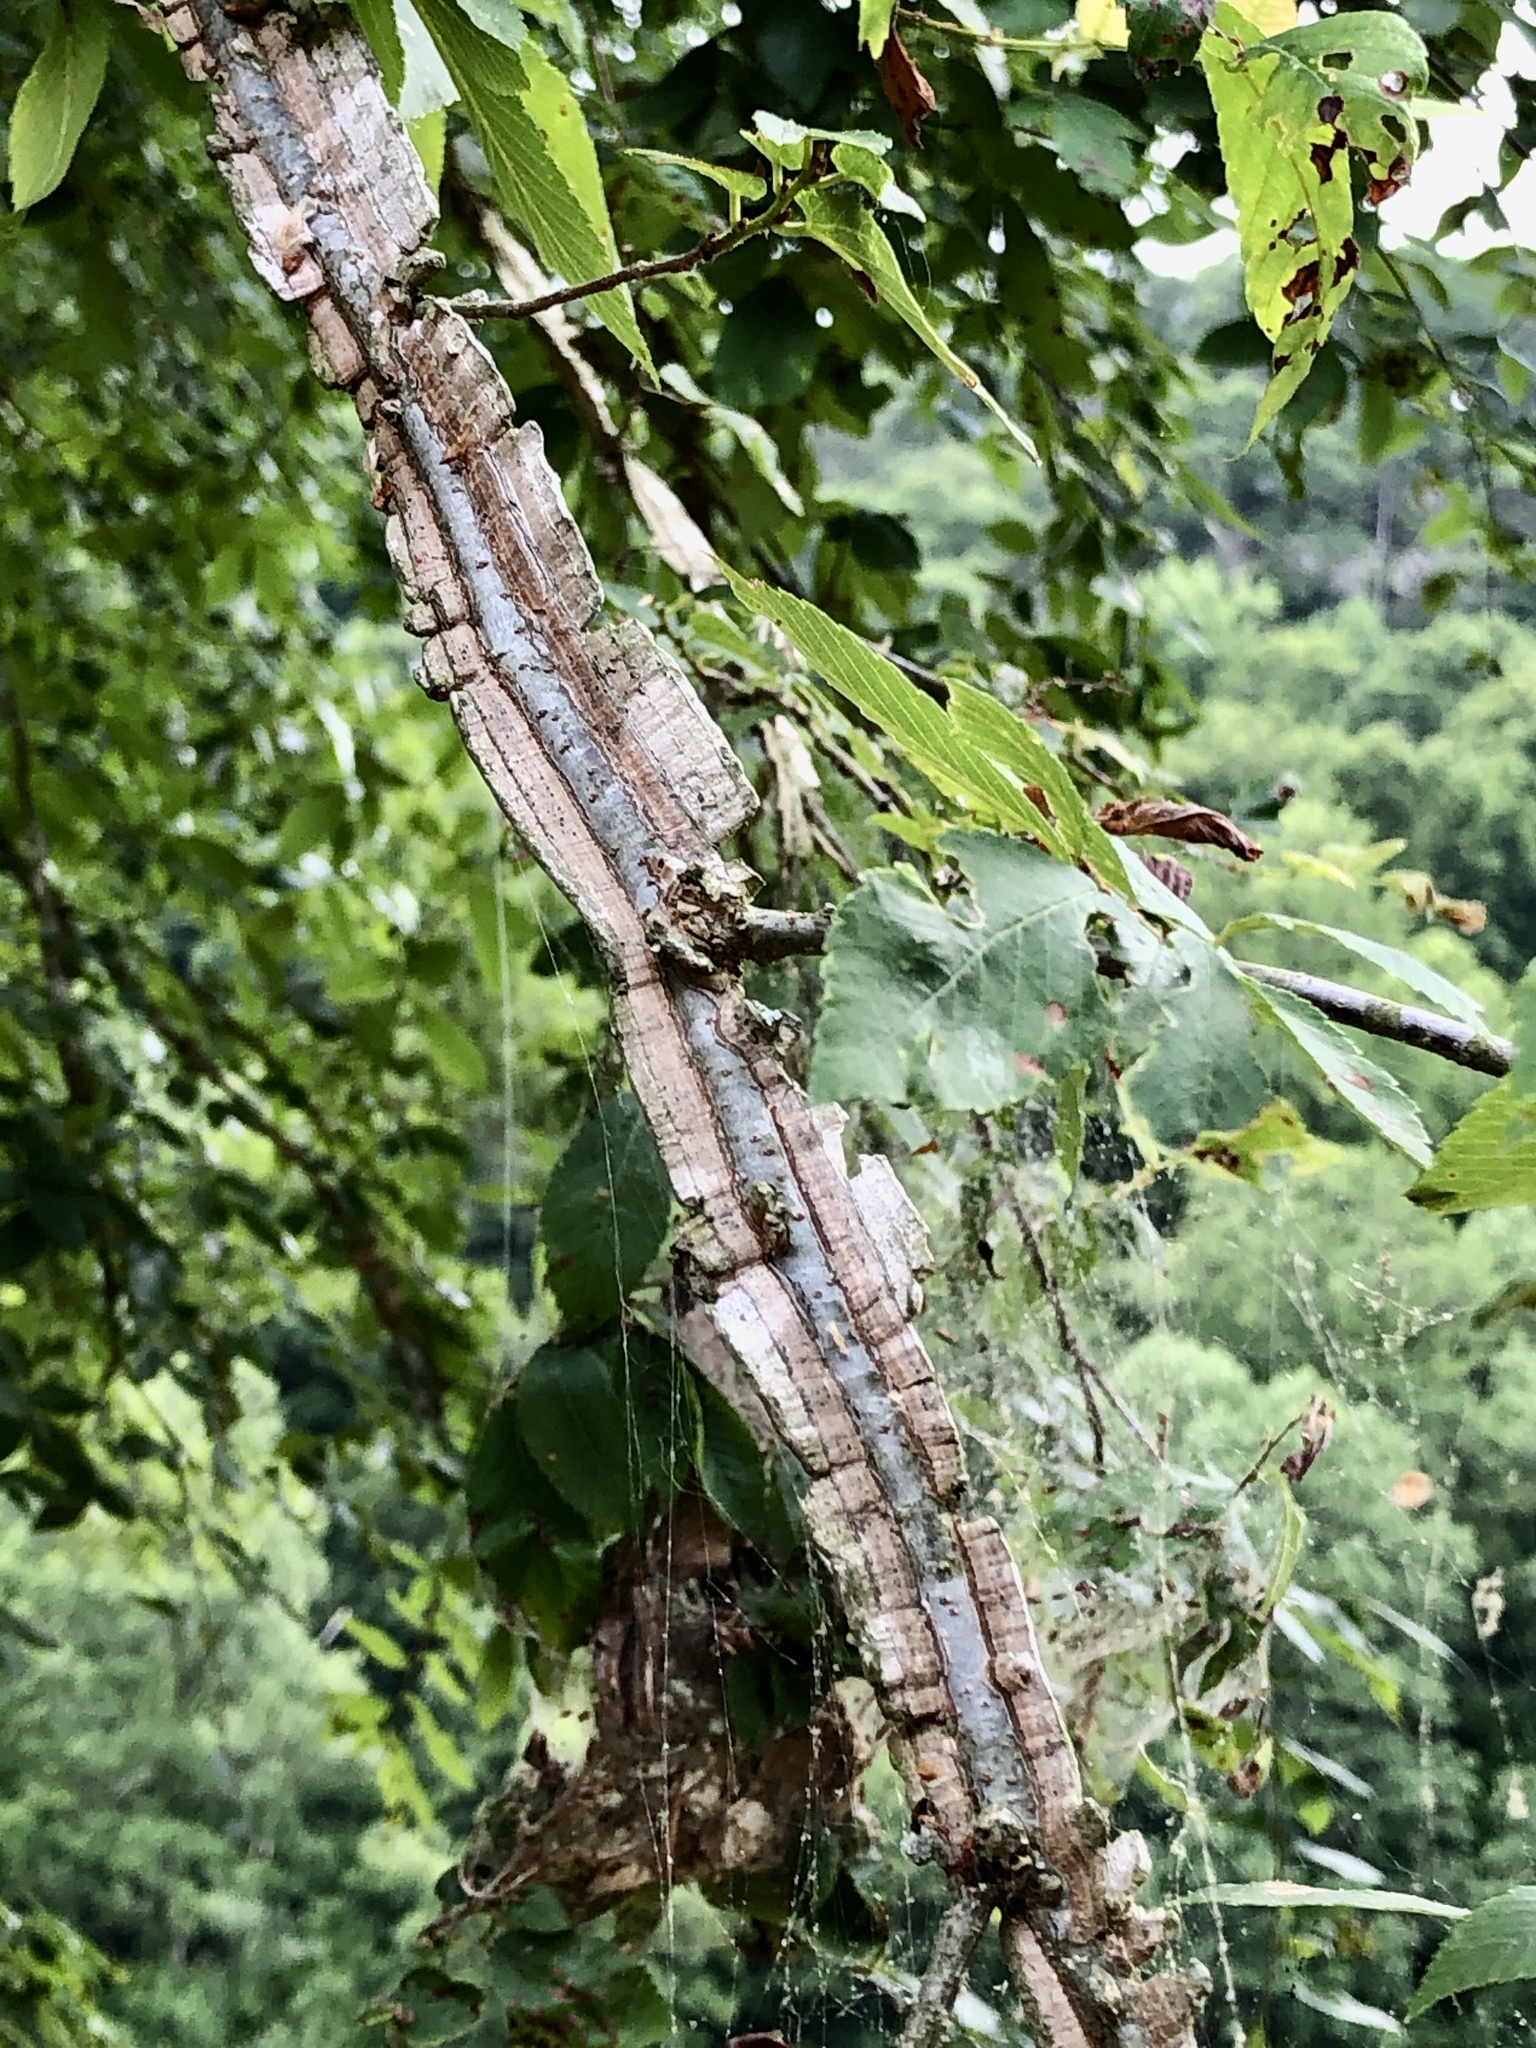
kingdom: Plantae
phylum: Tracheophyta
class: Magnoliopsida
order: Rosales
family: Ulmaceae
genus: Ulmus
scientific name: Ulmus alata
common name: Winged elm
